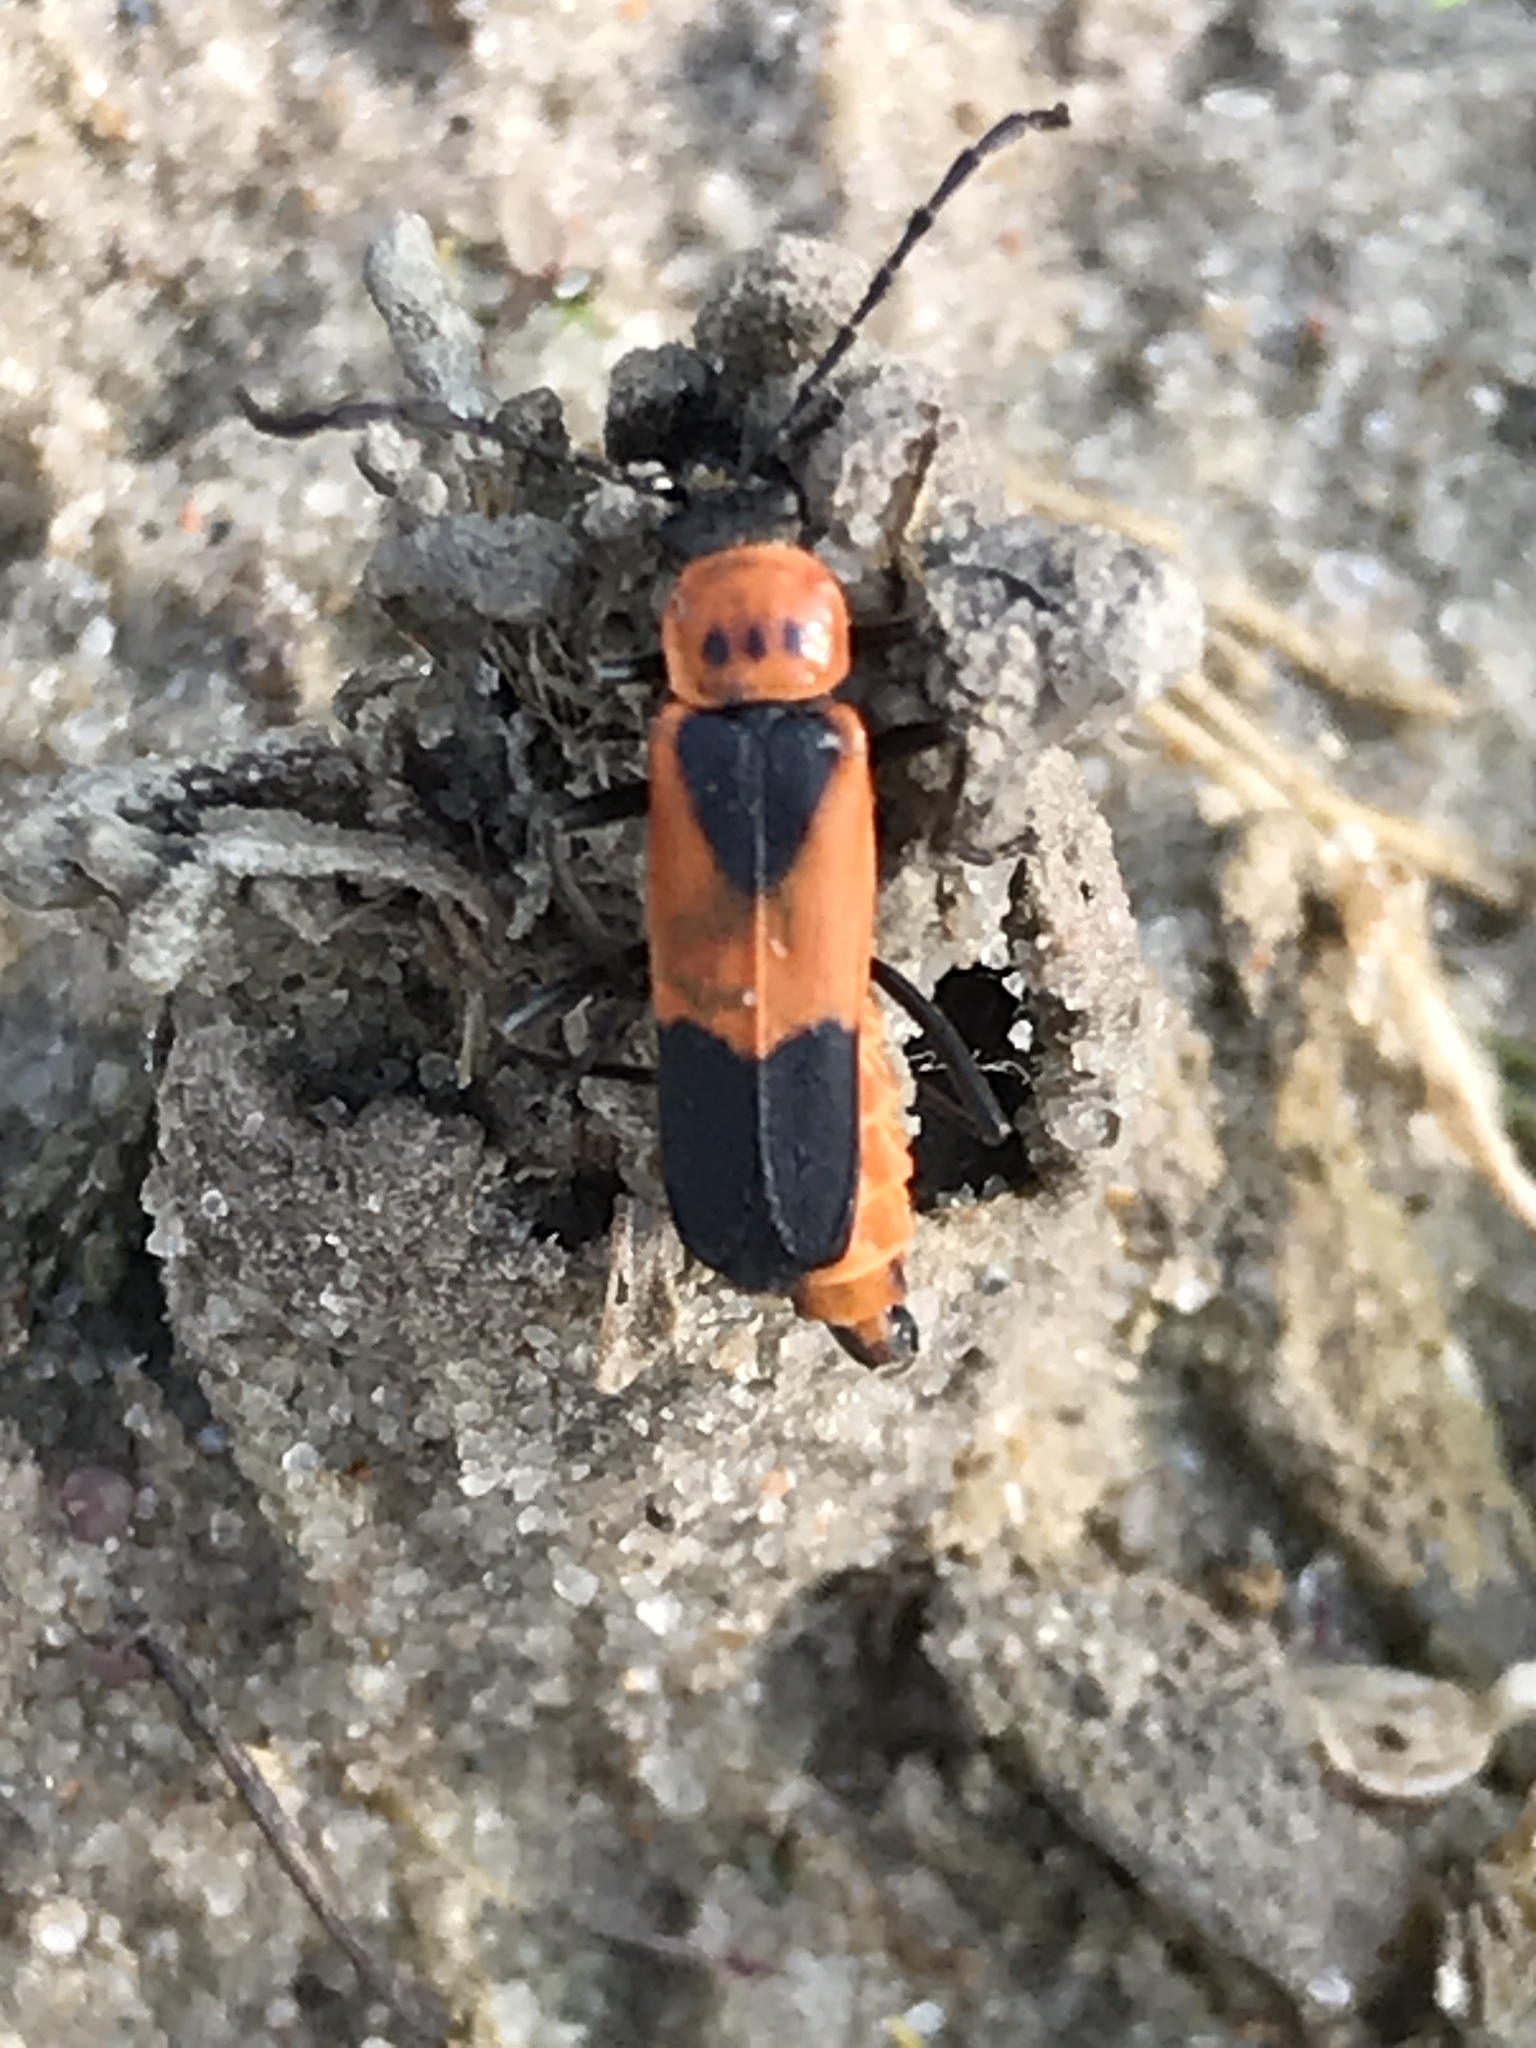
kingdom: Animalia
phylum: Arthropoda
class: Insecta
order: Coleoptera
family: Cantharidae
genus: Chauliognathus
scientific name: Chauliognathus basalis
